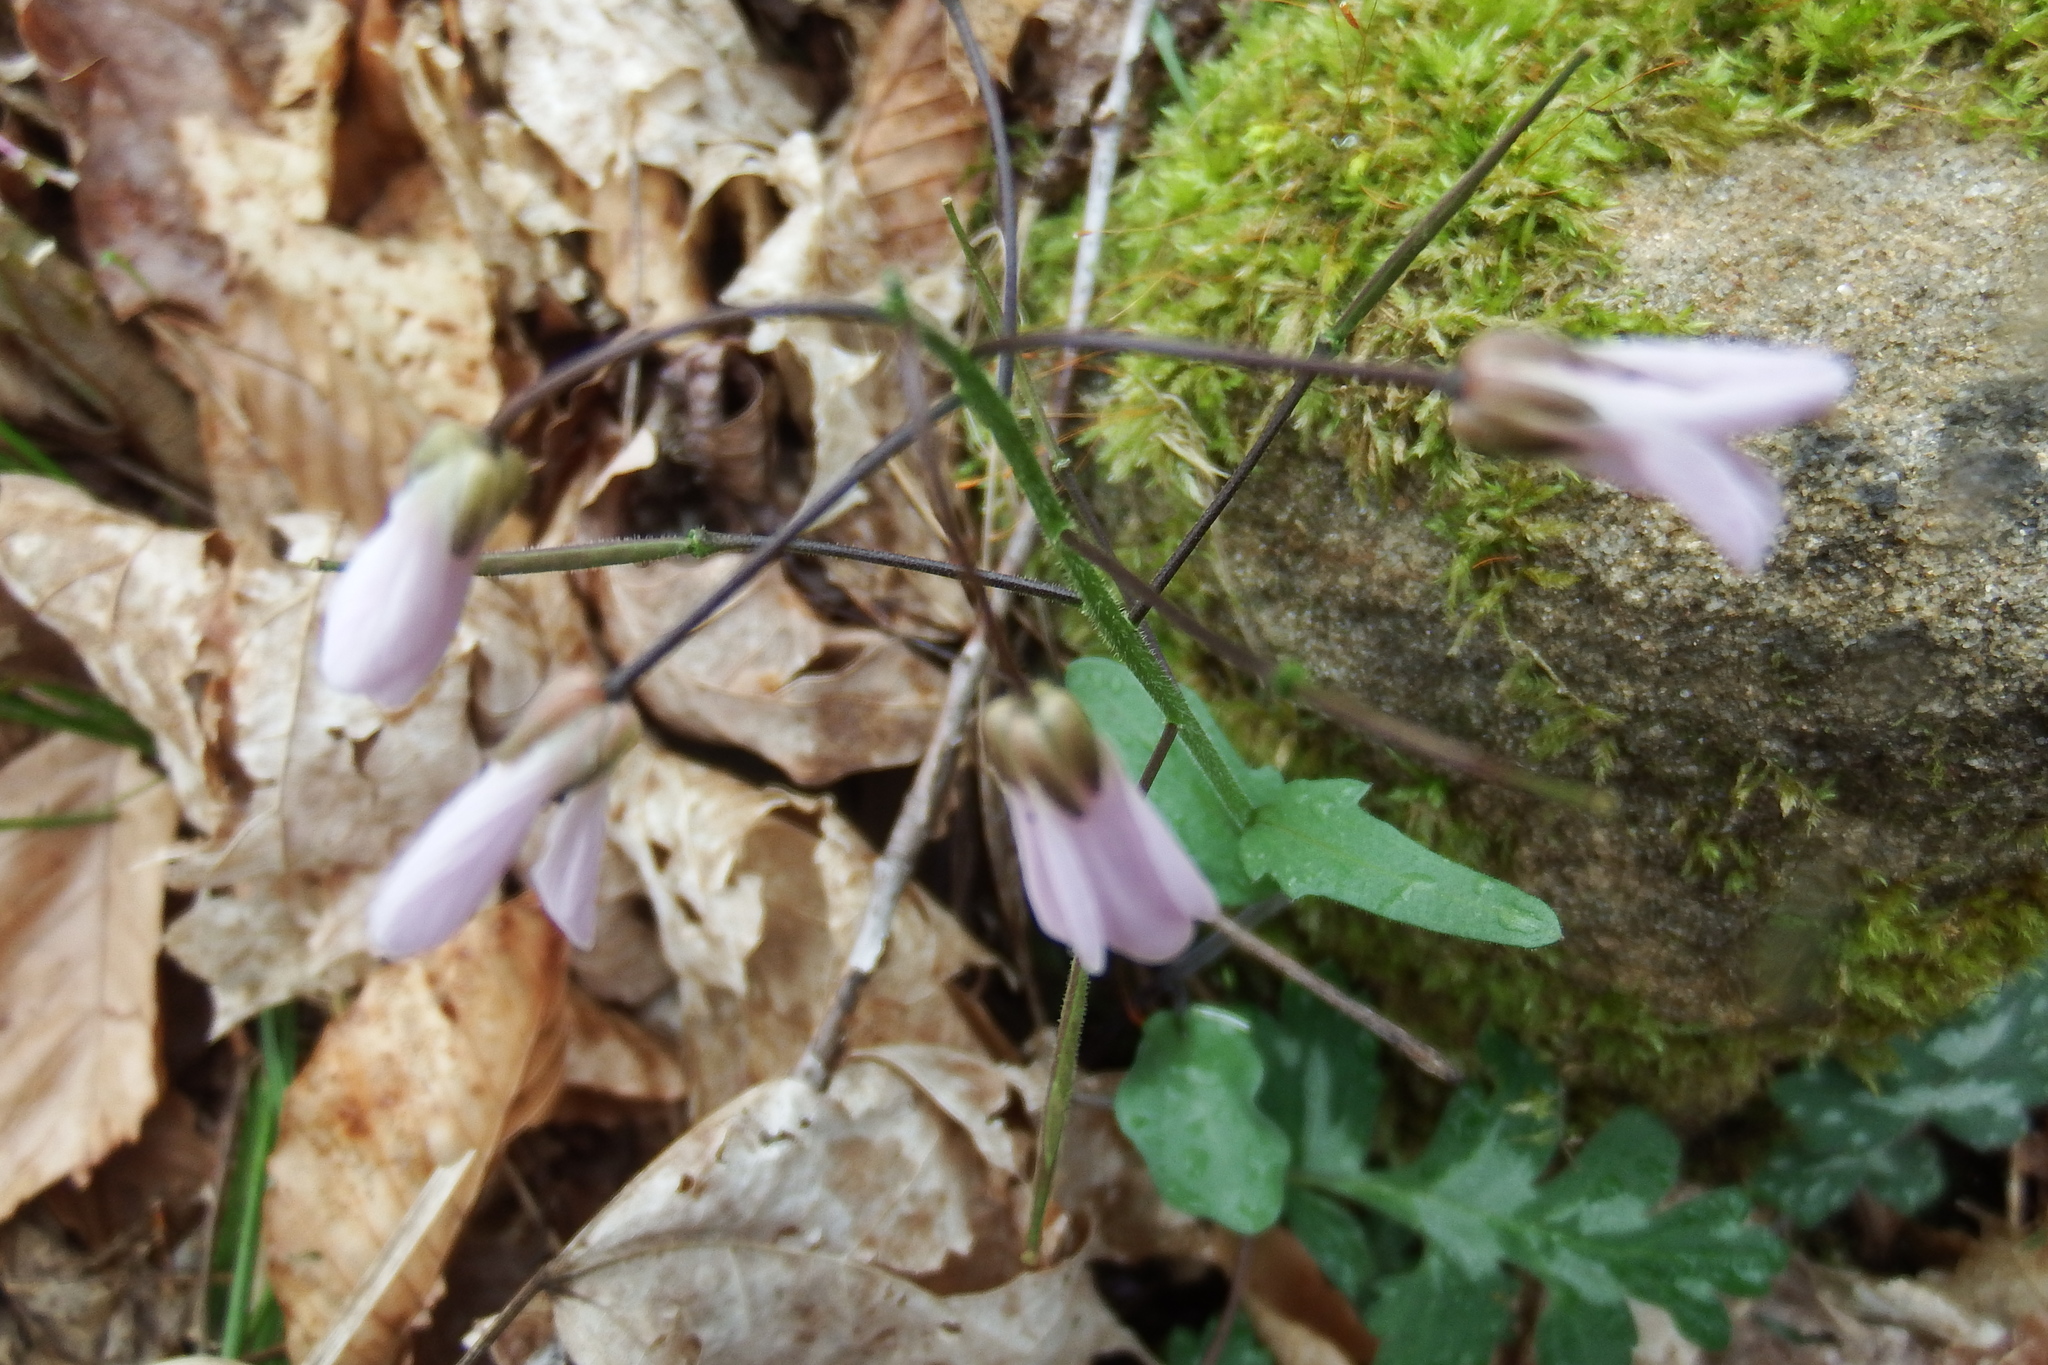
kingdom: Plantae
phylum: Tracheophyta
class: Magnoliopsida
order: Brassicales
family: Brassicaceae
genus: Cardamine
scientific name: Cardamine douglassii
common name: Purple cress
